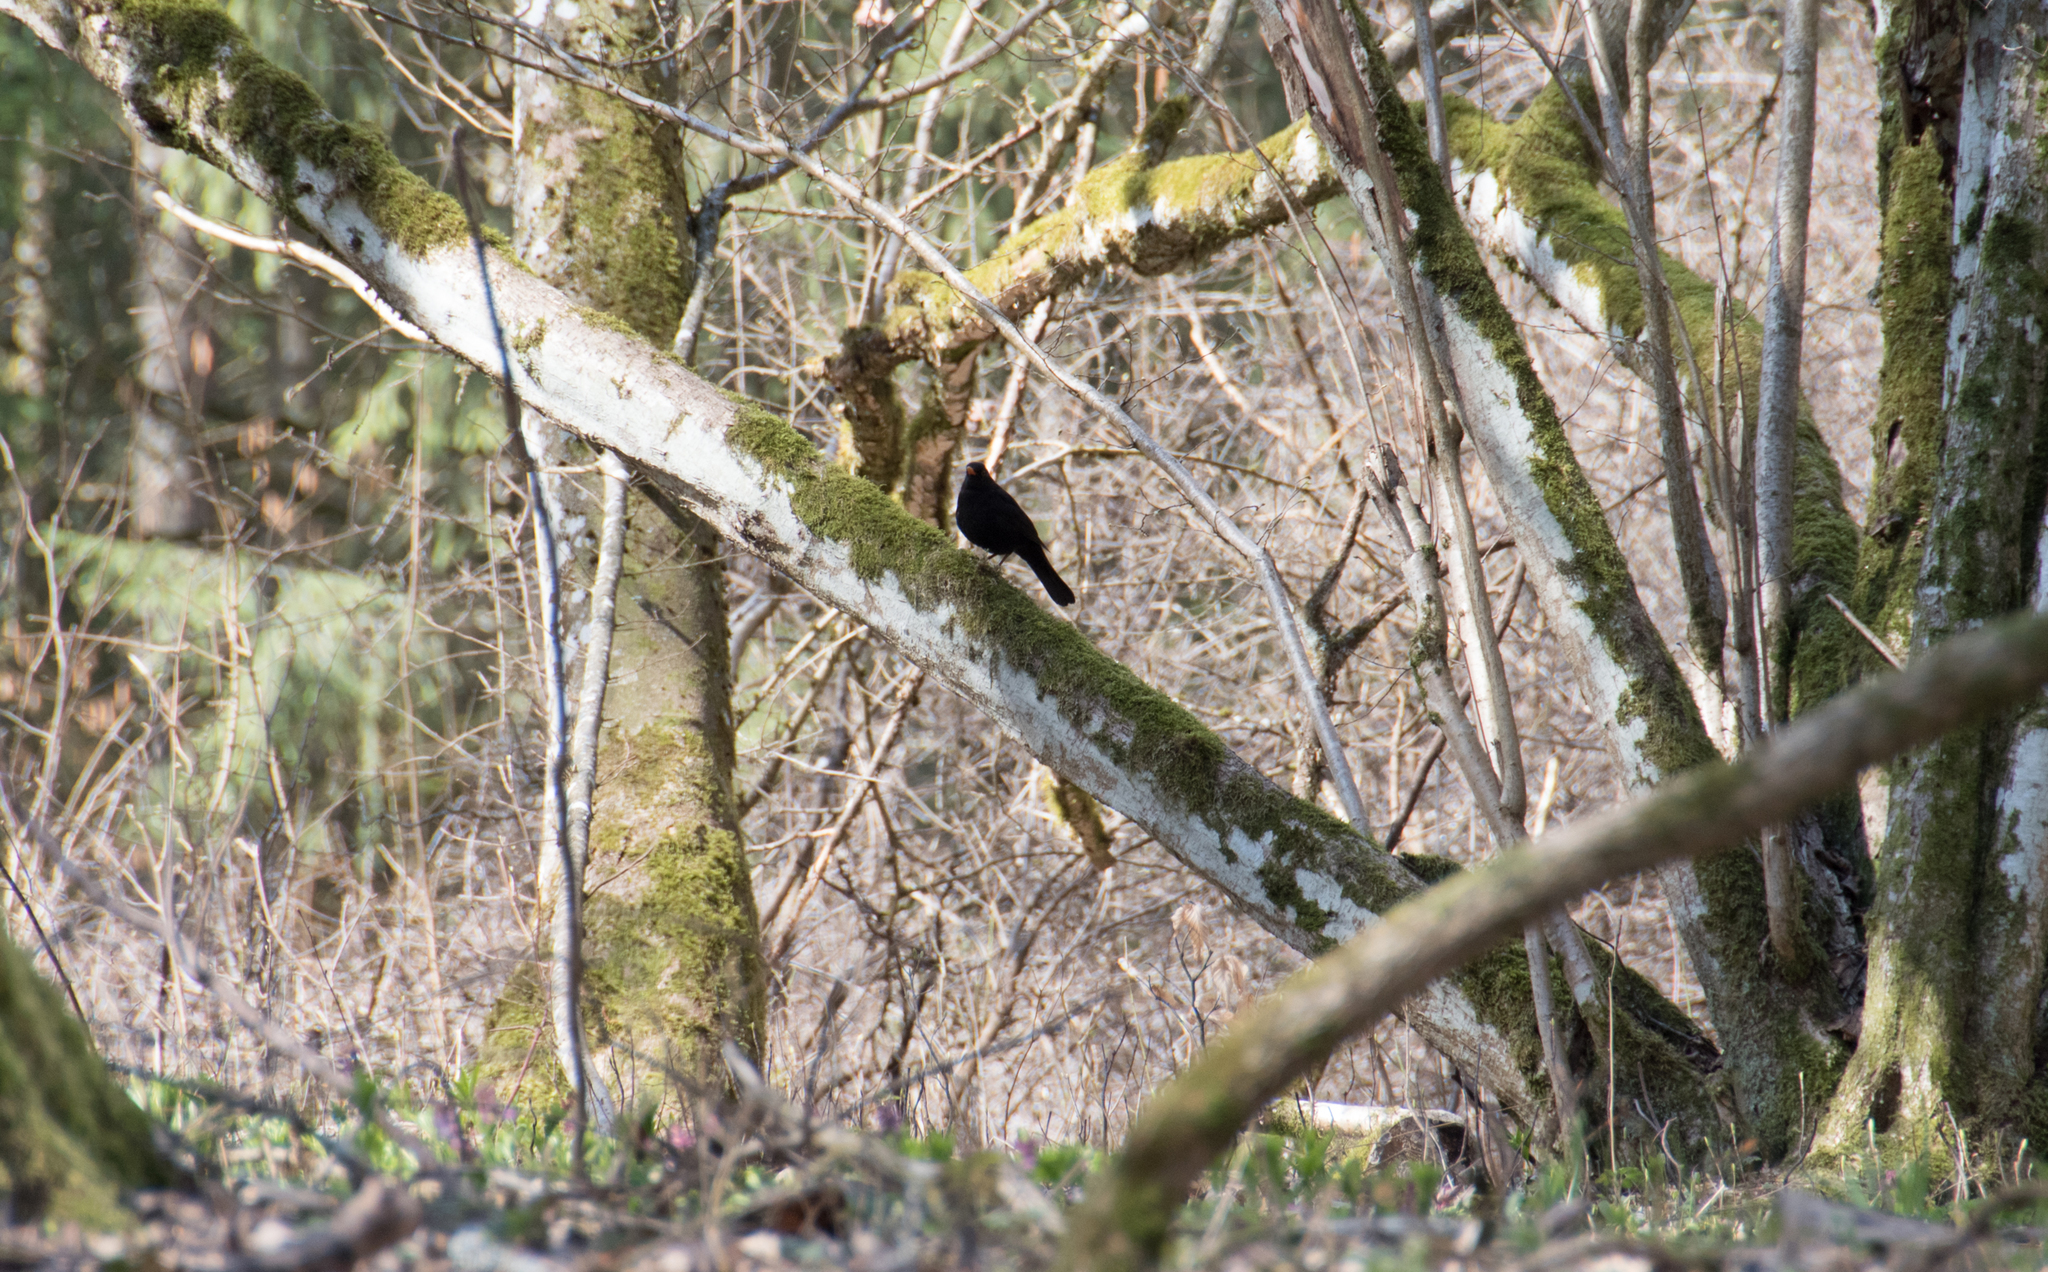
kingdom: Animalia
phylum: Chordata
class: Aves
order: Passeriformes
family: Turdidae
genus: Turdus
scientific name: Turdus merula
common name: Common blackbird
